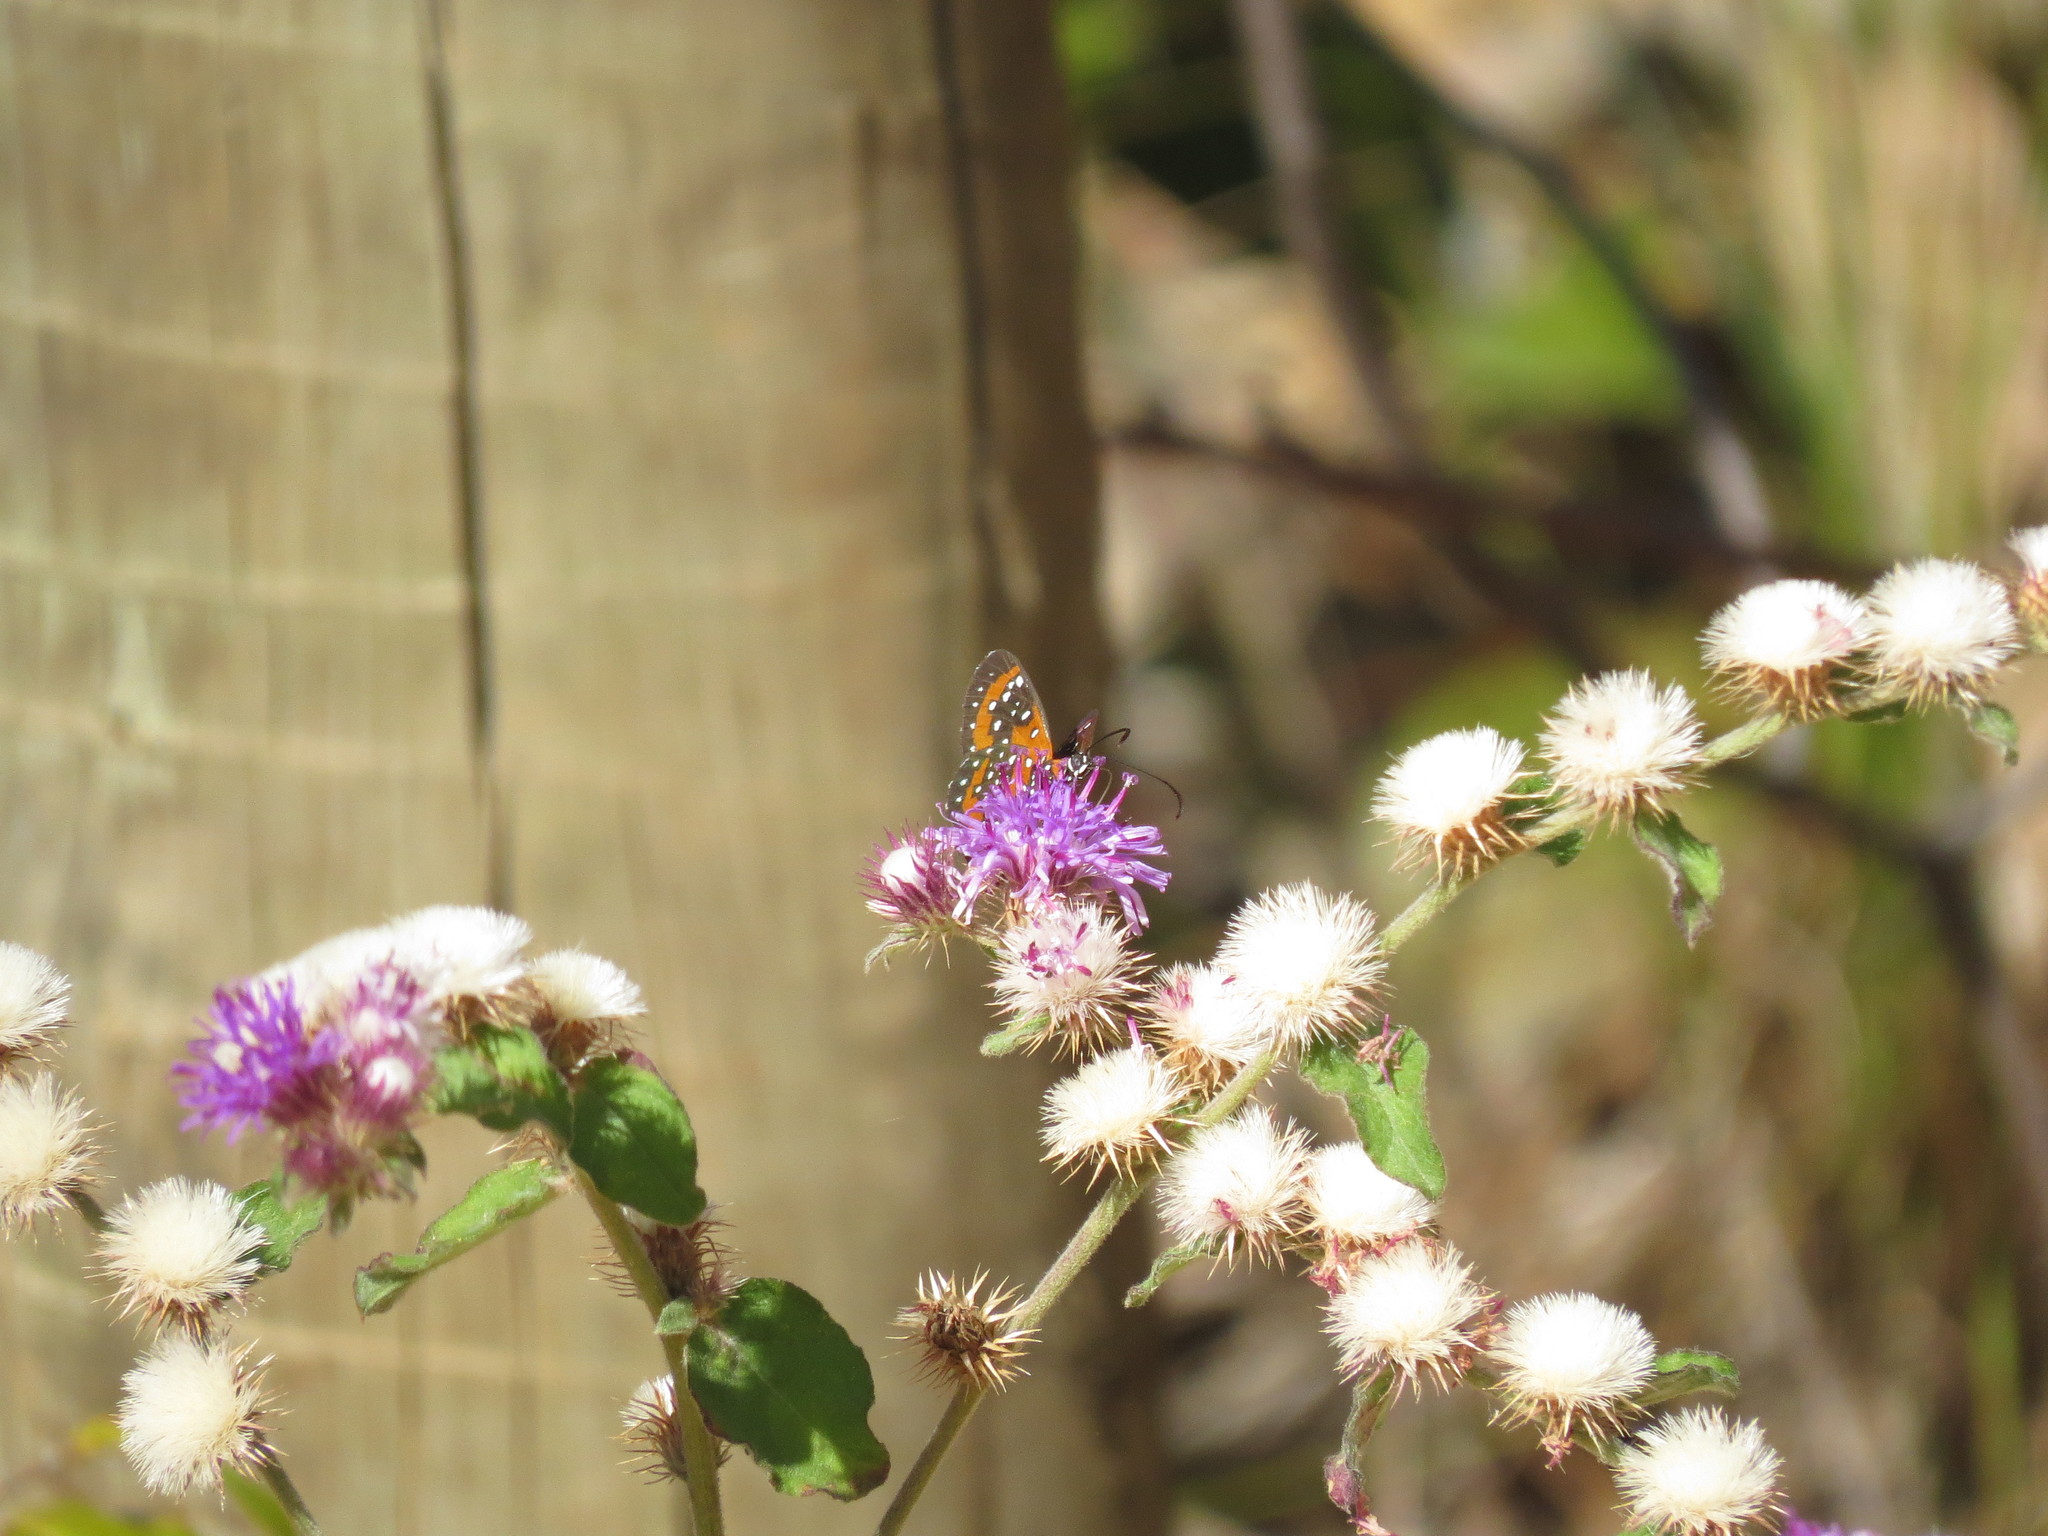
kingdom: Animalia
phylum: Arthropoda
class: Insecta
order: Lepidoptera
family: Riodinidae
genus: Stalachtis
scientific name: Stalachtis phlegia
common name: Dotted prince
